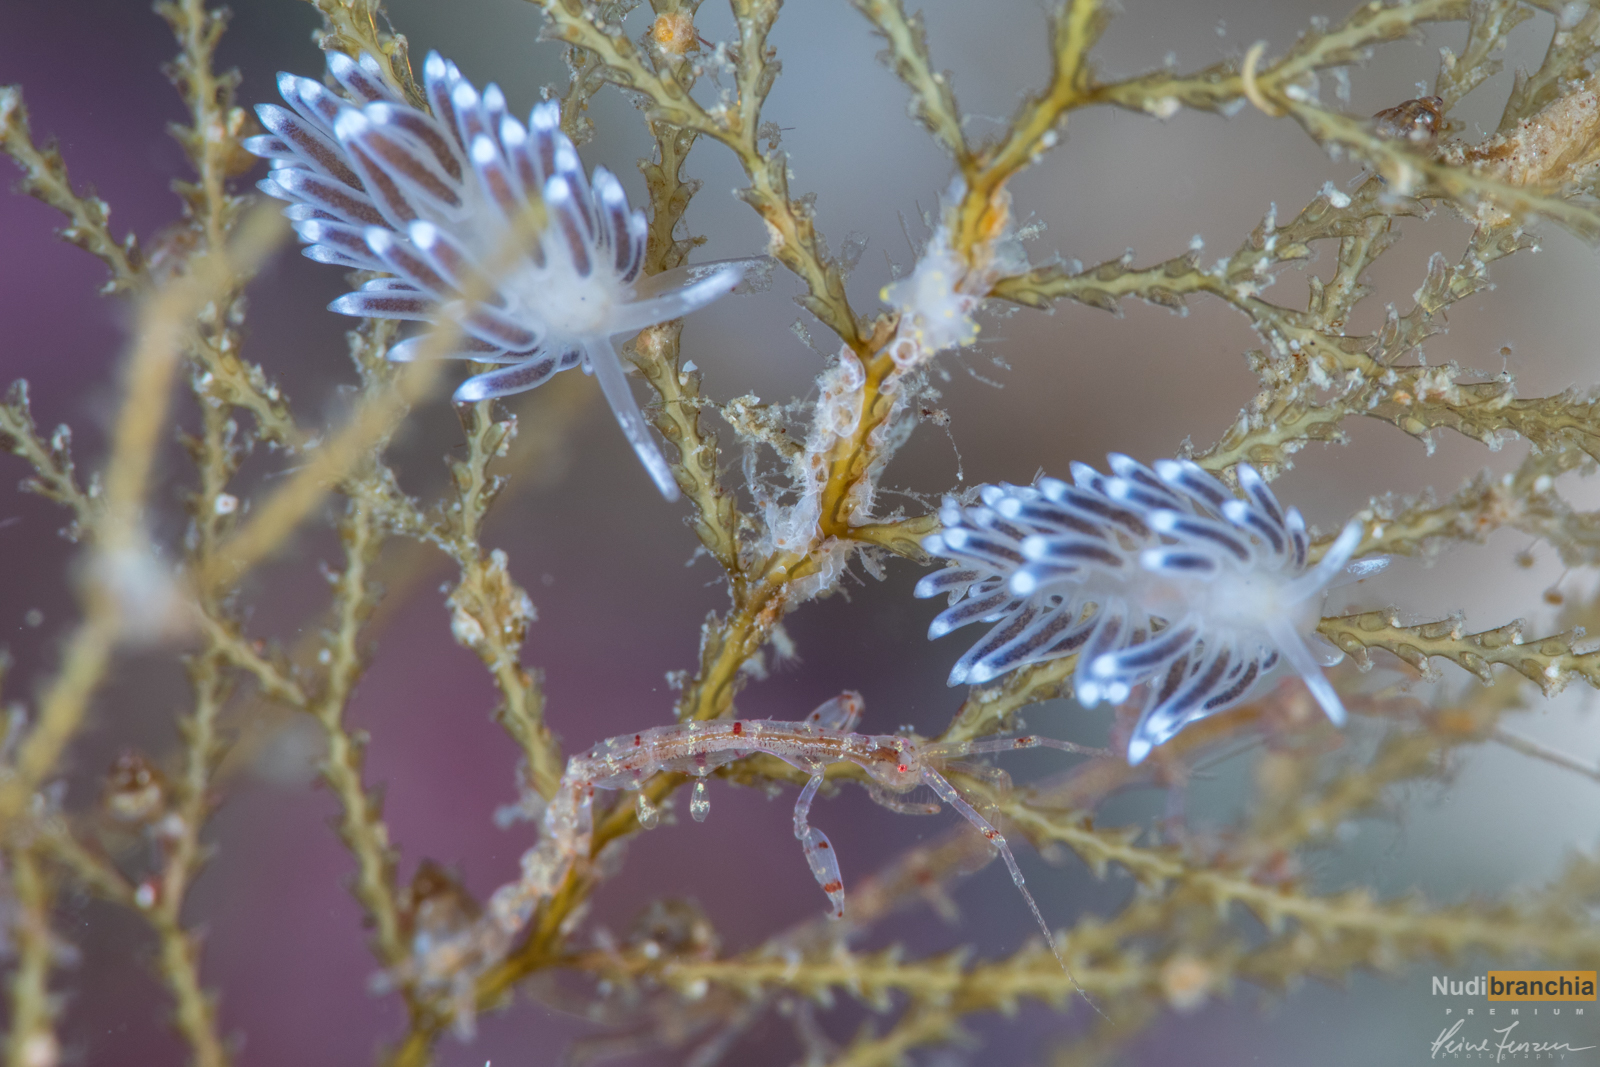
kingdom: Animalia
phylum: Mollusca
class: Gastropoda
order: Nudibranchia
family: Cuthonellidae
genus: Cuthonella
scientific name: Cuthonella concinna
